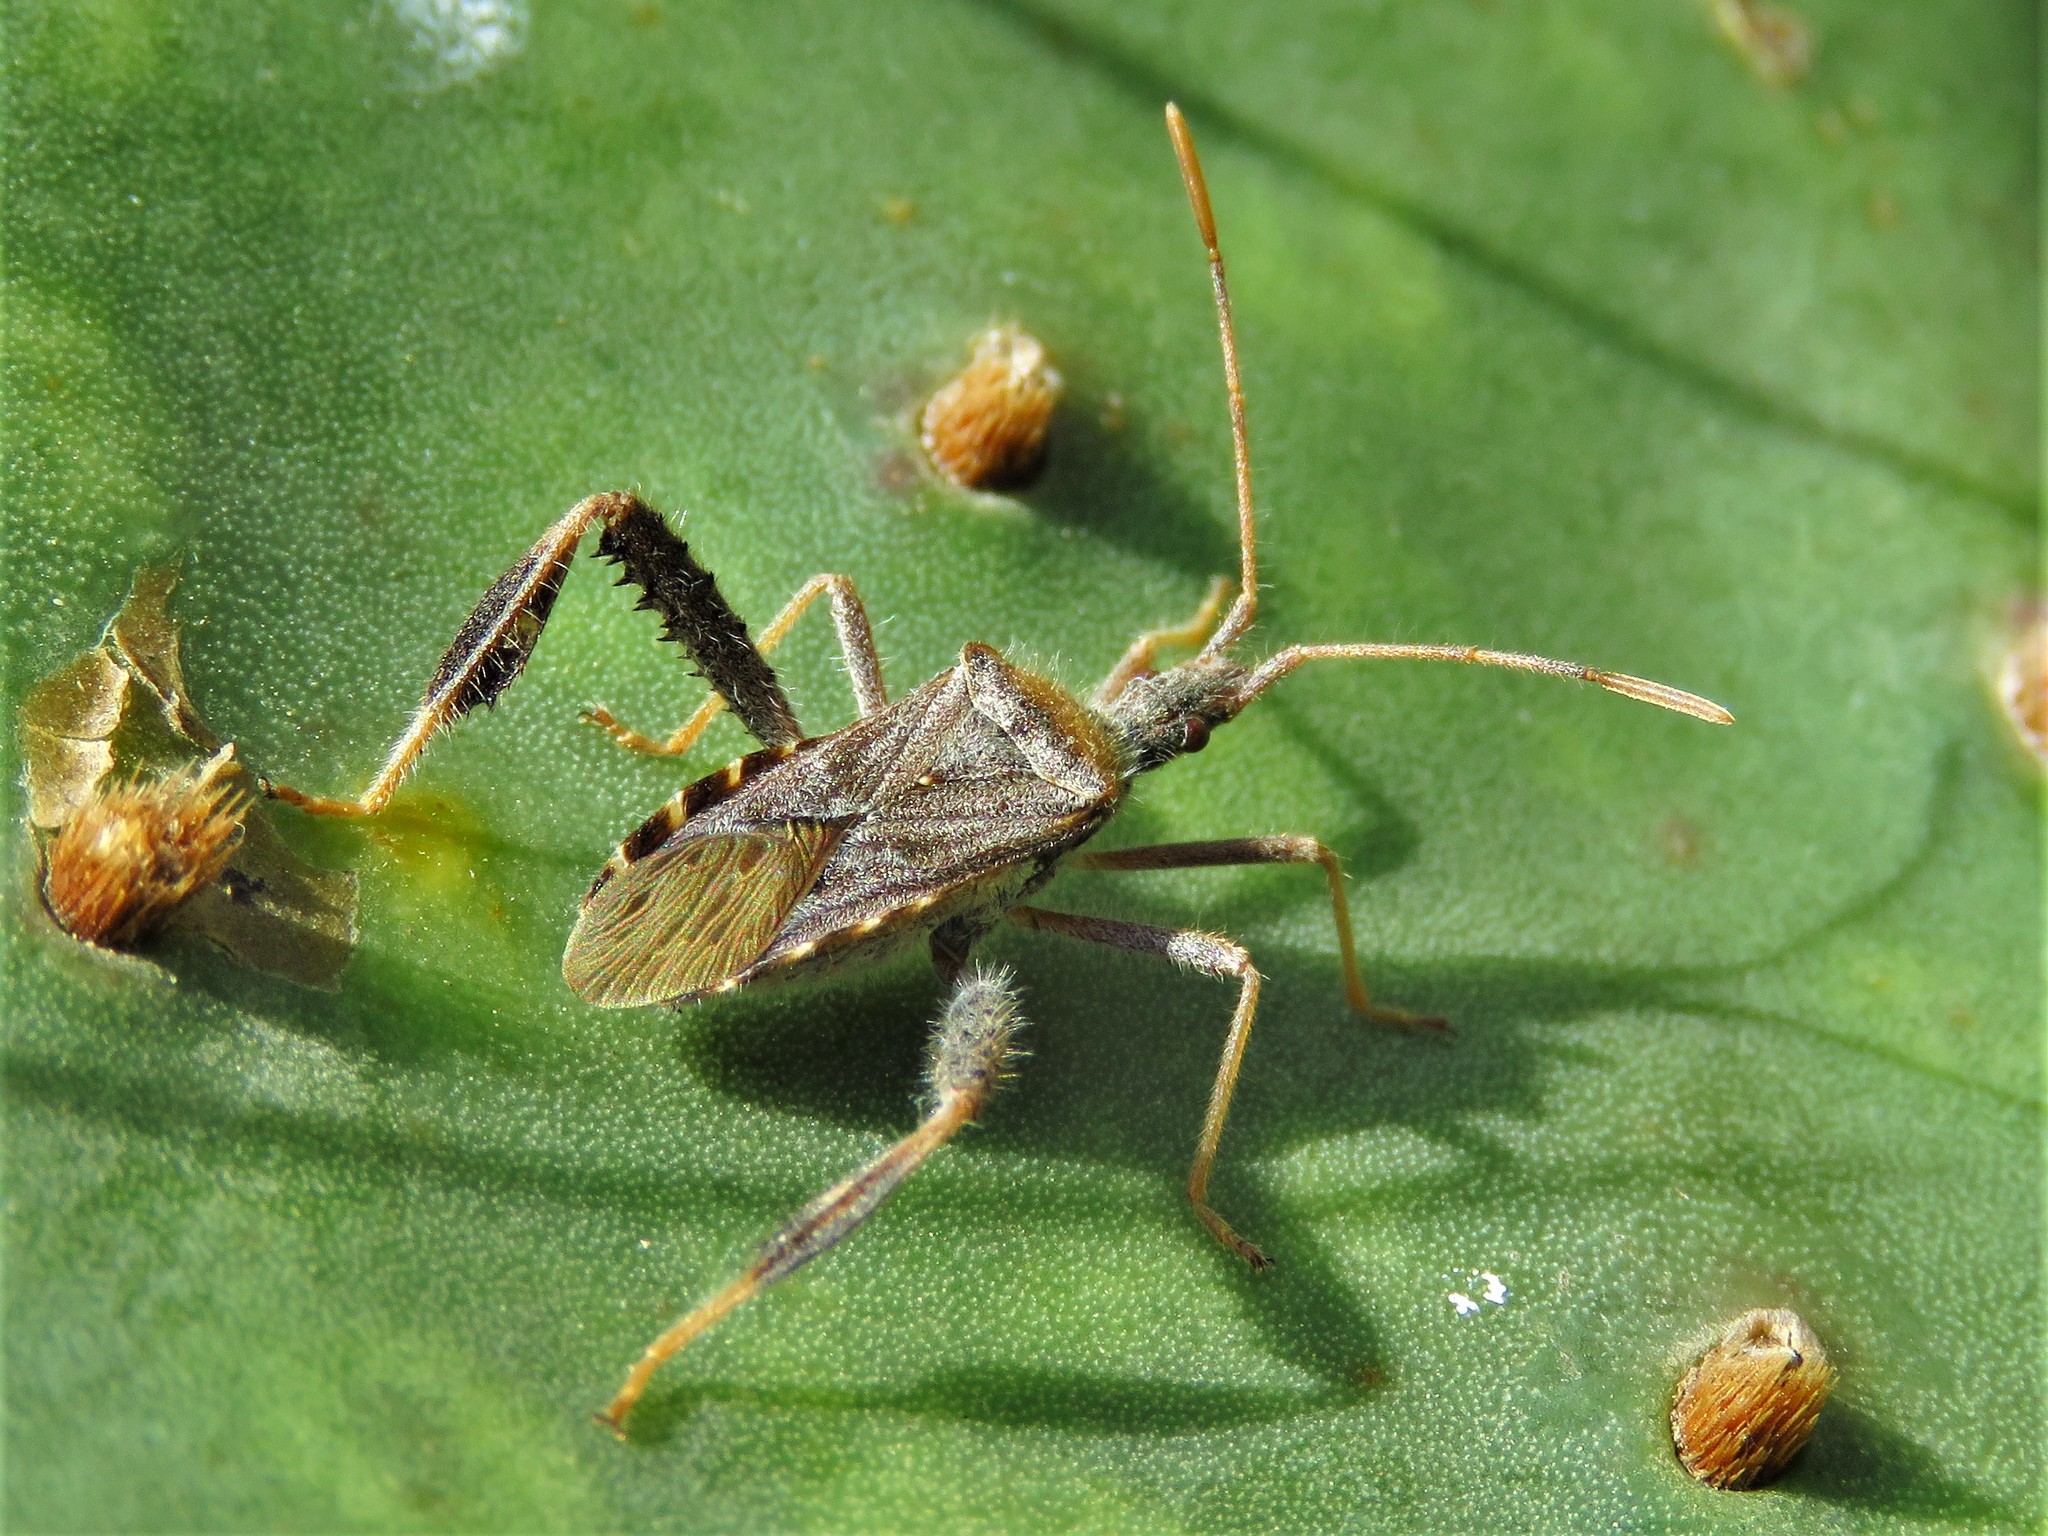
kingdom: Animalia
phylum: Arthropoda
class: Insecta
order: Hemiptera
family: Coreidae
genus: Narnia
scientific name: Narnia femorata
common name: Leaf-footed cactus bug
